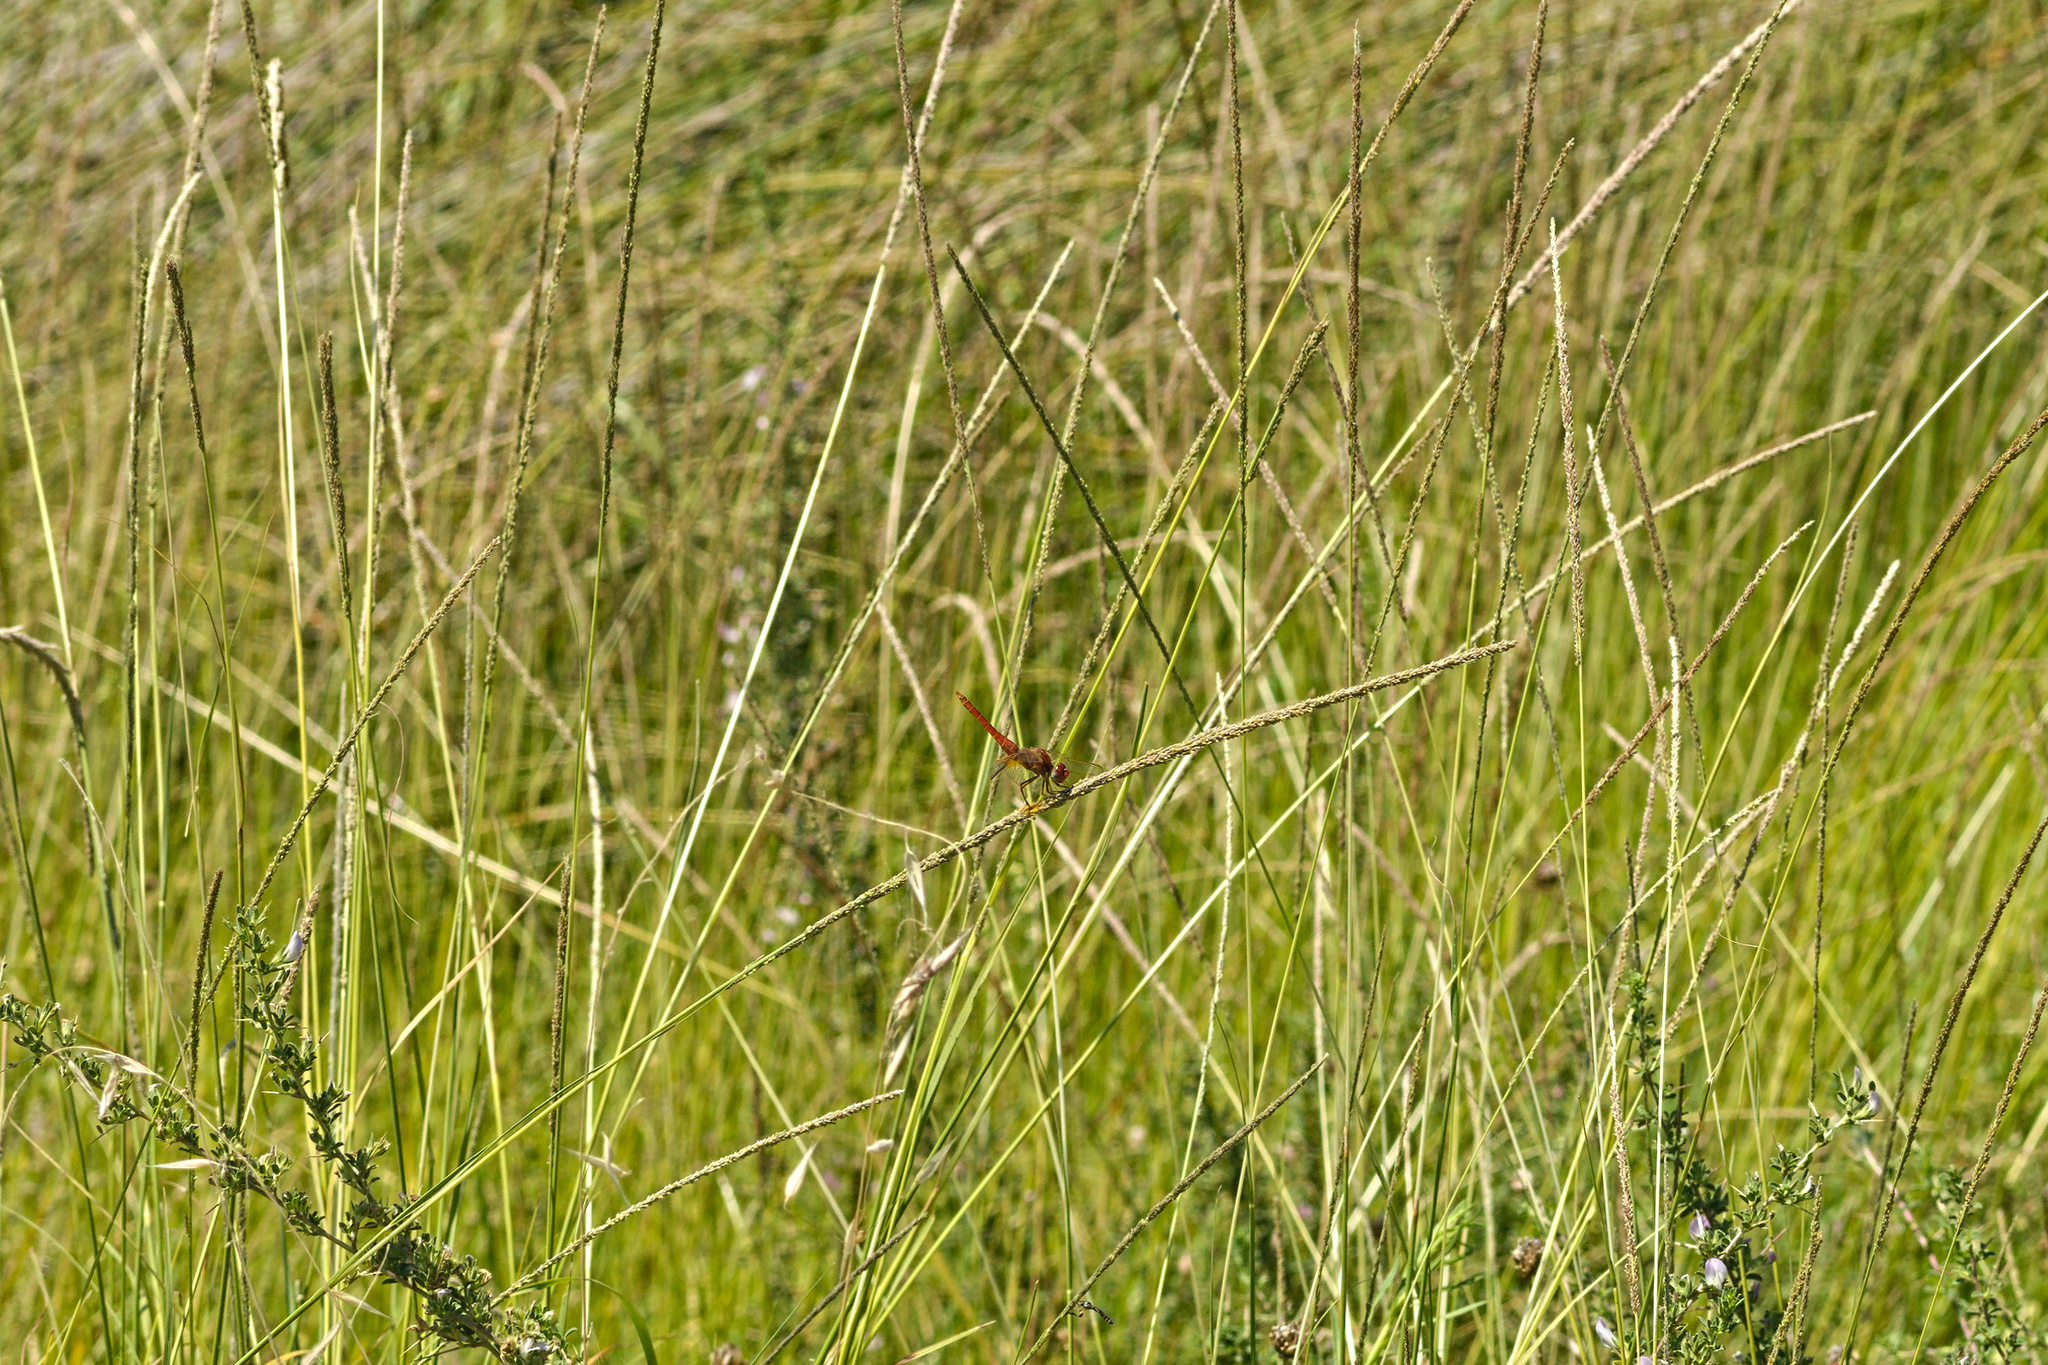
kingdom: Animalia
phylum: Arthropoda
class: Insecta
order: Odonata
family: Libellulidae
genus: Crocothemis
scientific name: Crocothemis erythraea
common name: Scarlet dragonfly
